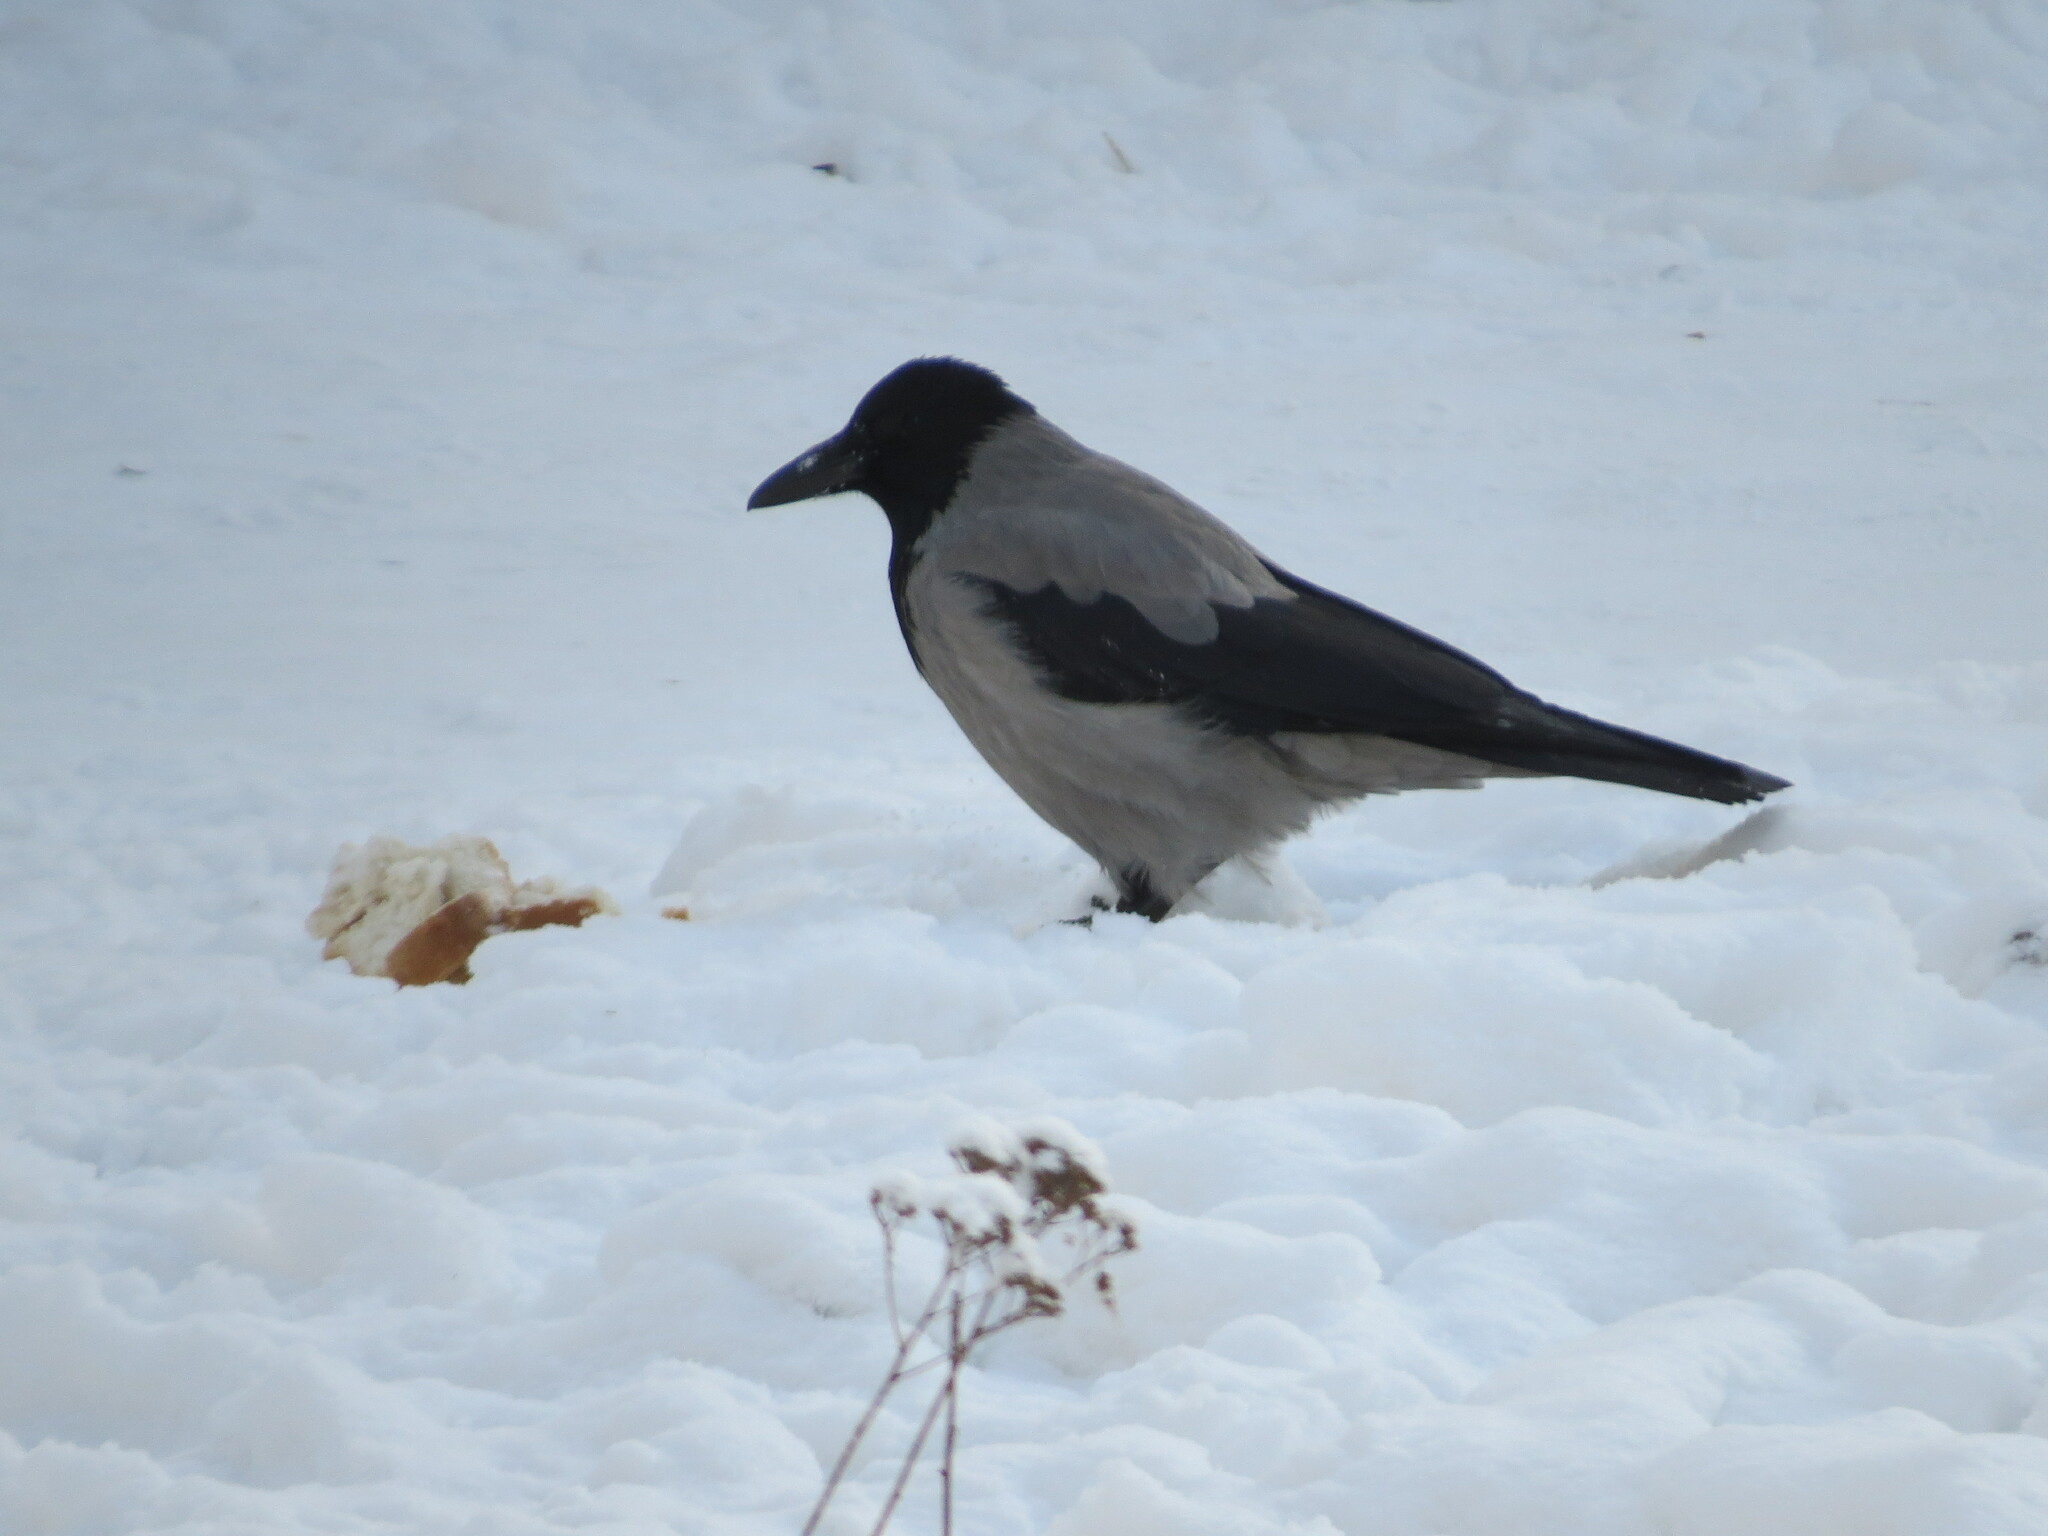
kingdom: Animalia
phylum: Chordata
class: Aves
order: Passeriformes
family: Corvidae
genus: Corvus
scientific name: Corvus cornix
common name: Hooded crow
